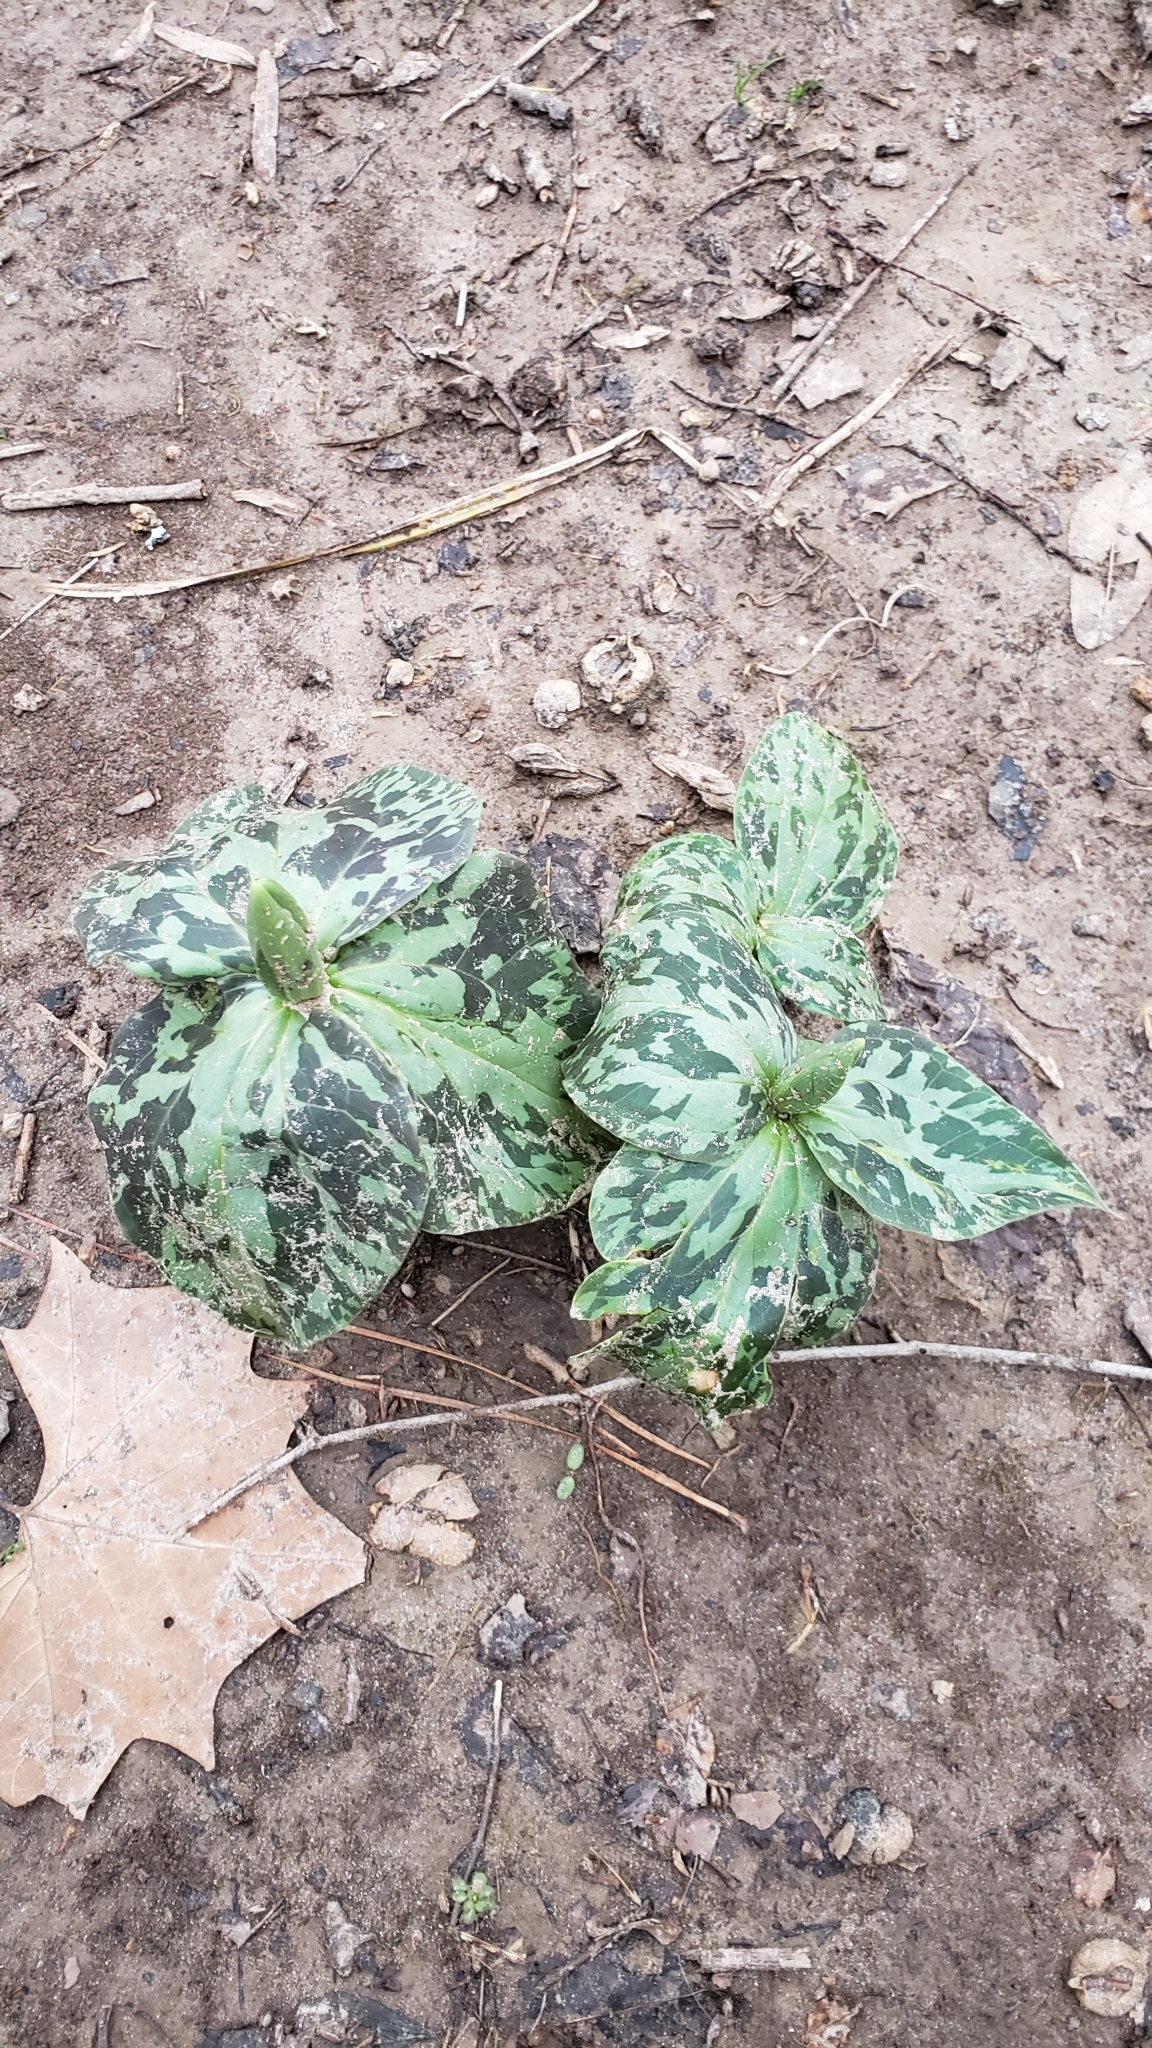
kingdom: Plantae
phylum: Tracheophyta
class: Liliopsida
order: Liliales
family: Melanthiaceae
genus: Trillium
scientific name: Trillium cuneatum
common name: Cuneate trillium
